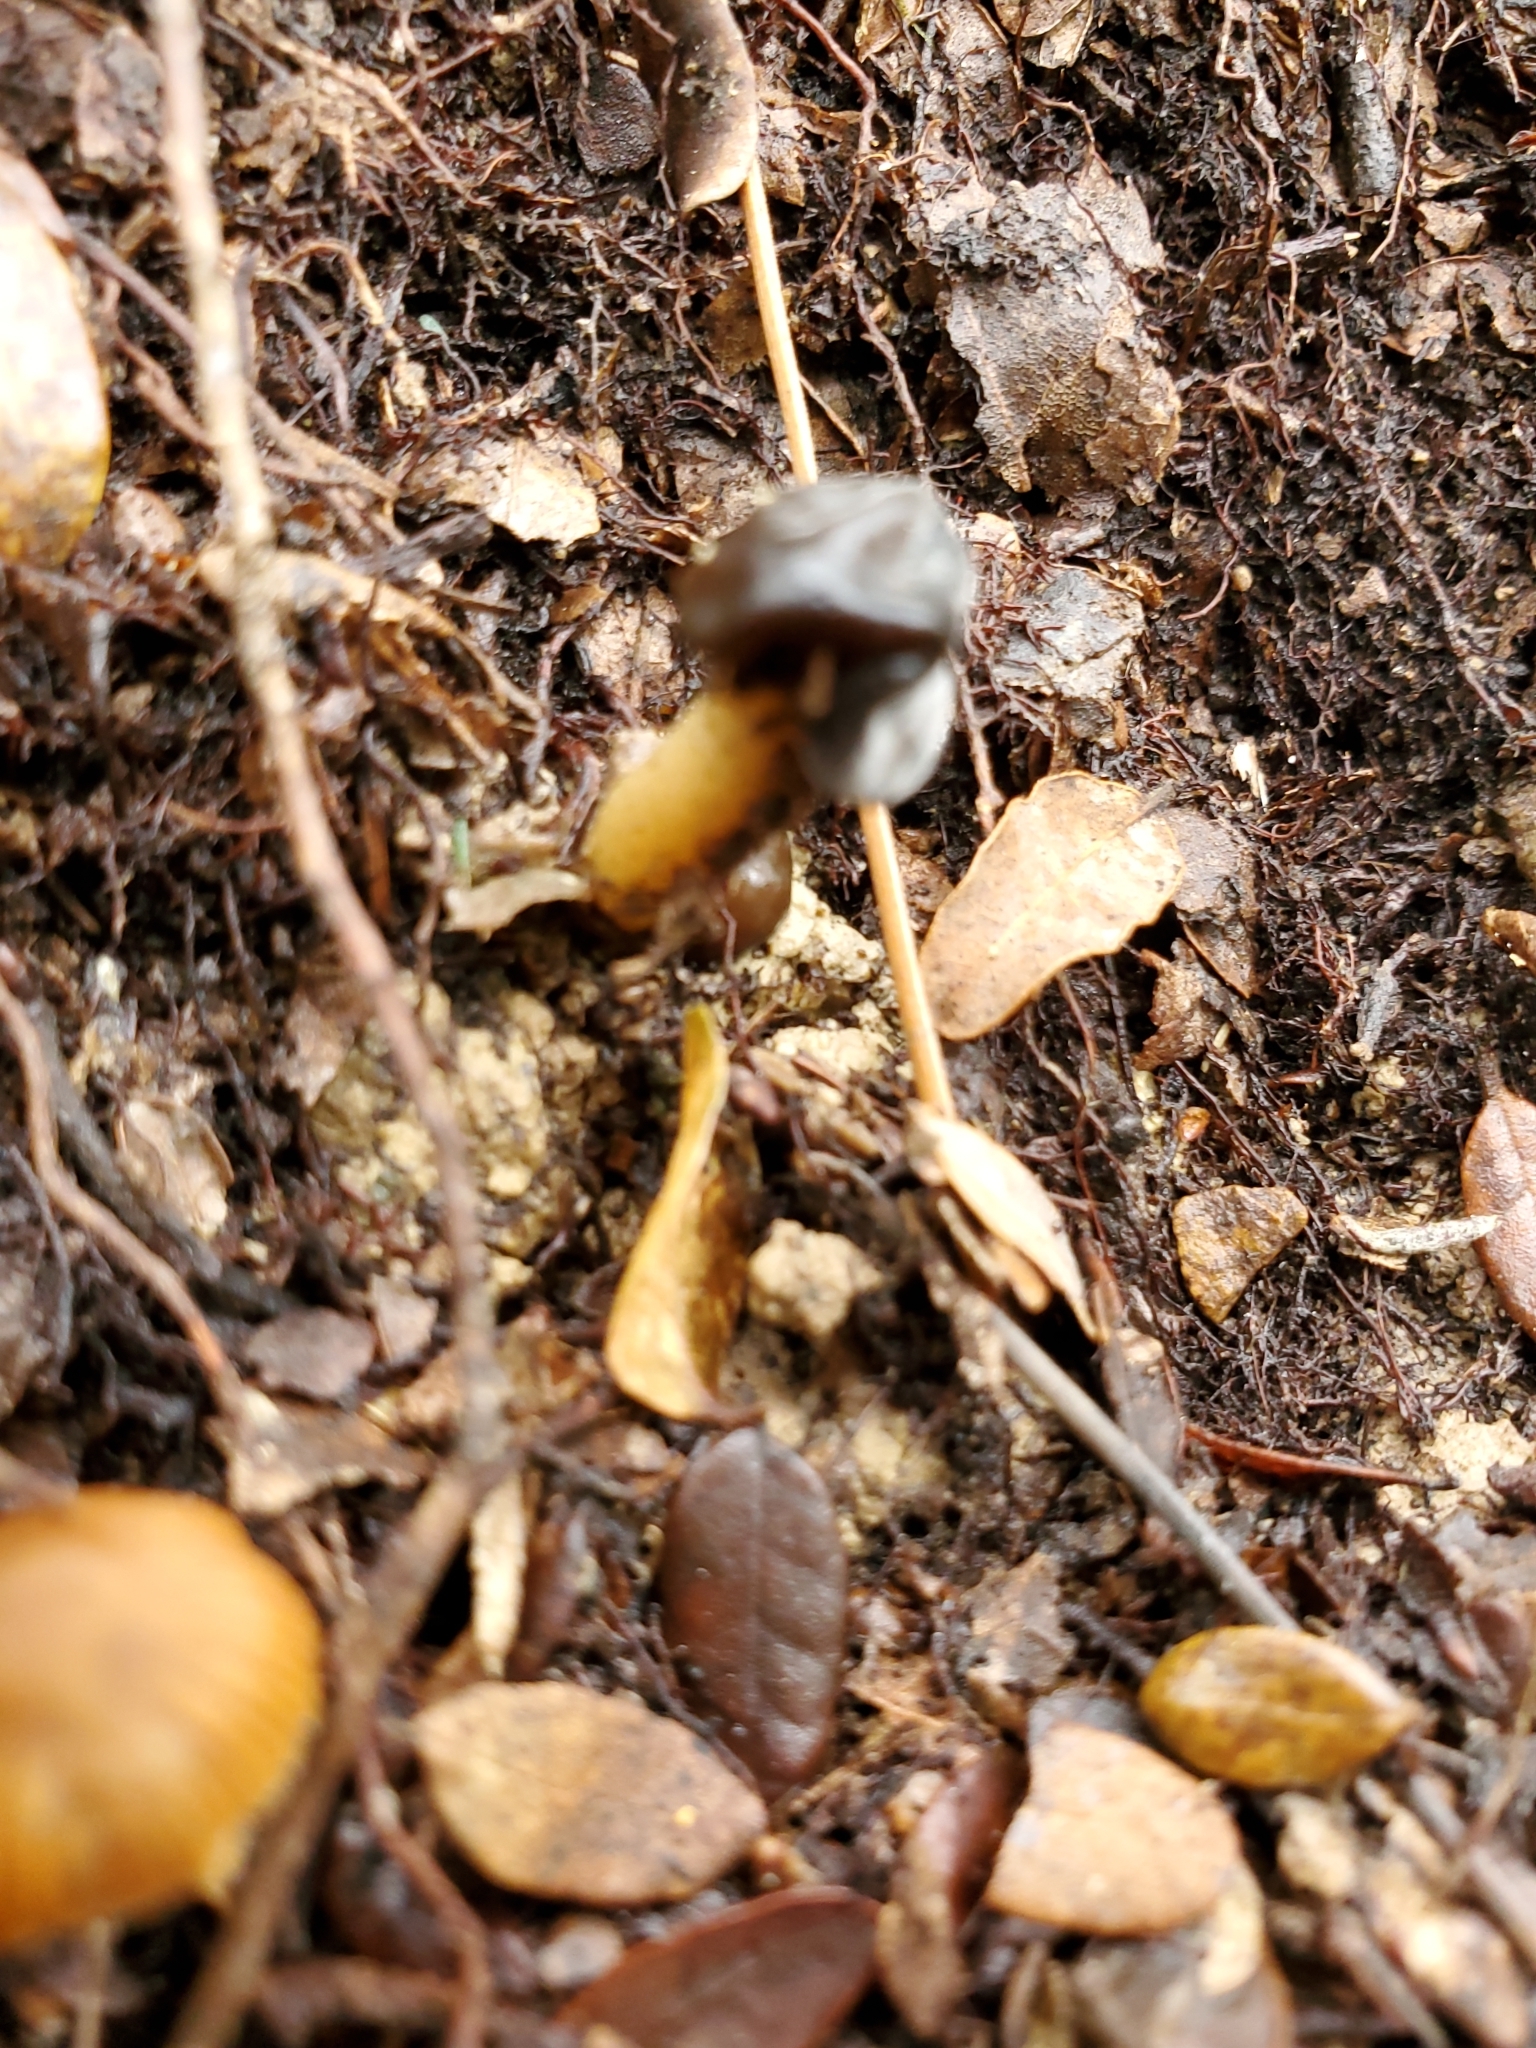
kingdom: Fungi
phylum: Ascomycota
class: Leotiomycetes
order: Leotiales
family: Leotiaceae
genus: Leotia
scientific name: Leotia lubrica
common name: Jellybaby
